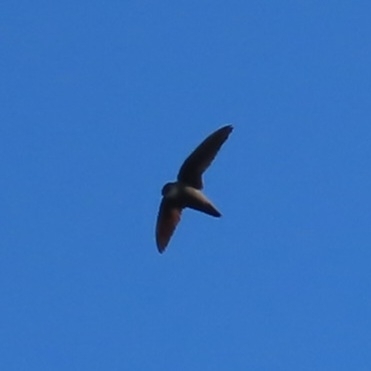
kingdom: Animalia
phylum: Chordata
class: Aves
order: Apodiformes
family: Apodidae
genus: Chaetura
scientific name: Chaetura pelagica
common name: Chimney swift
